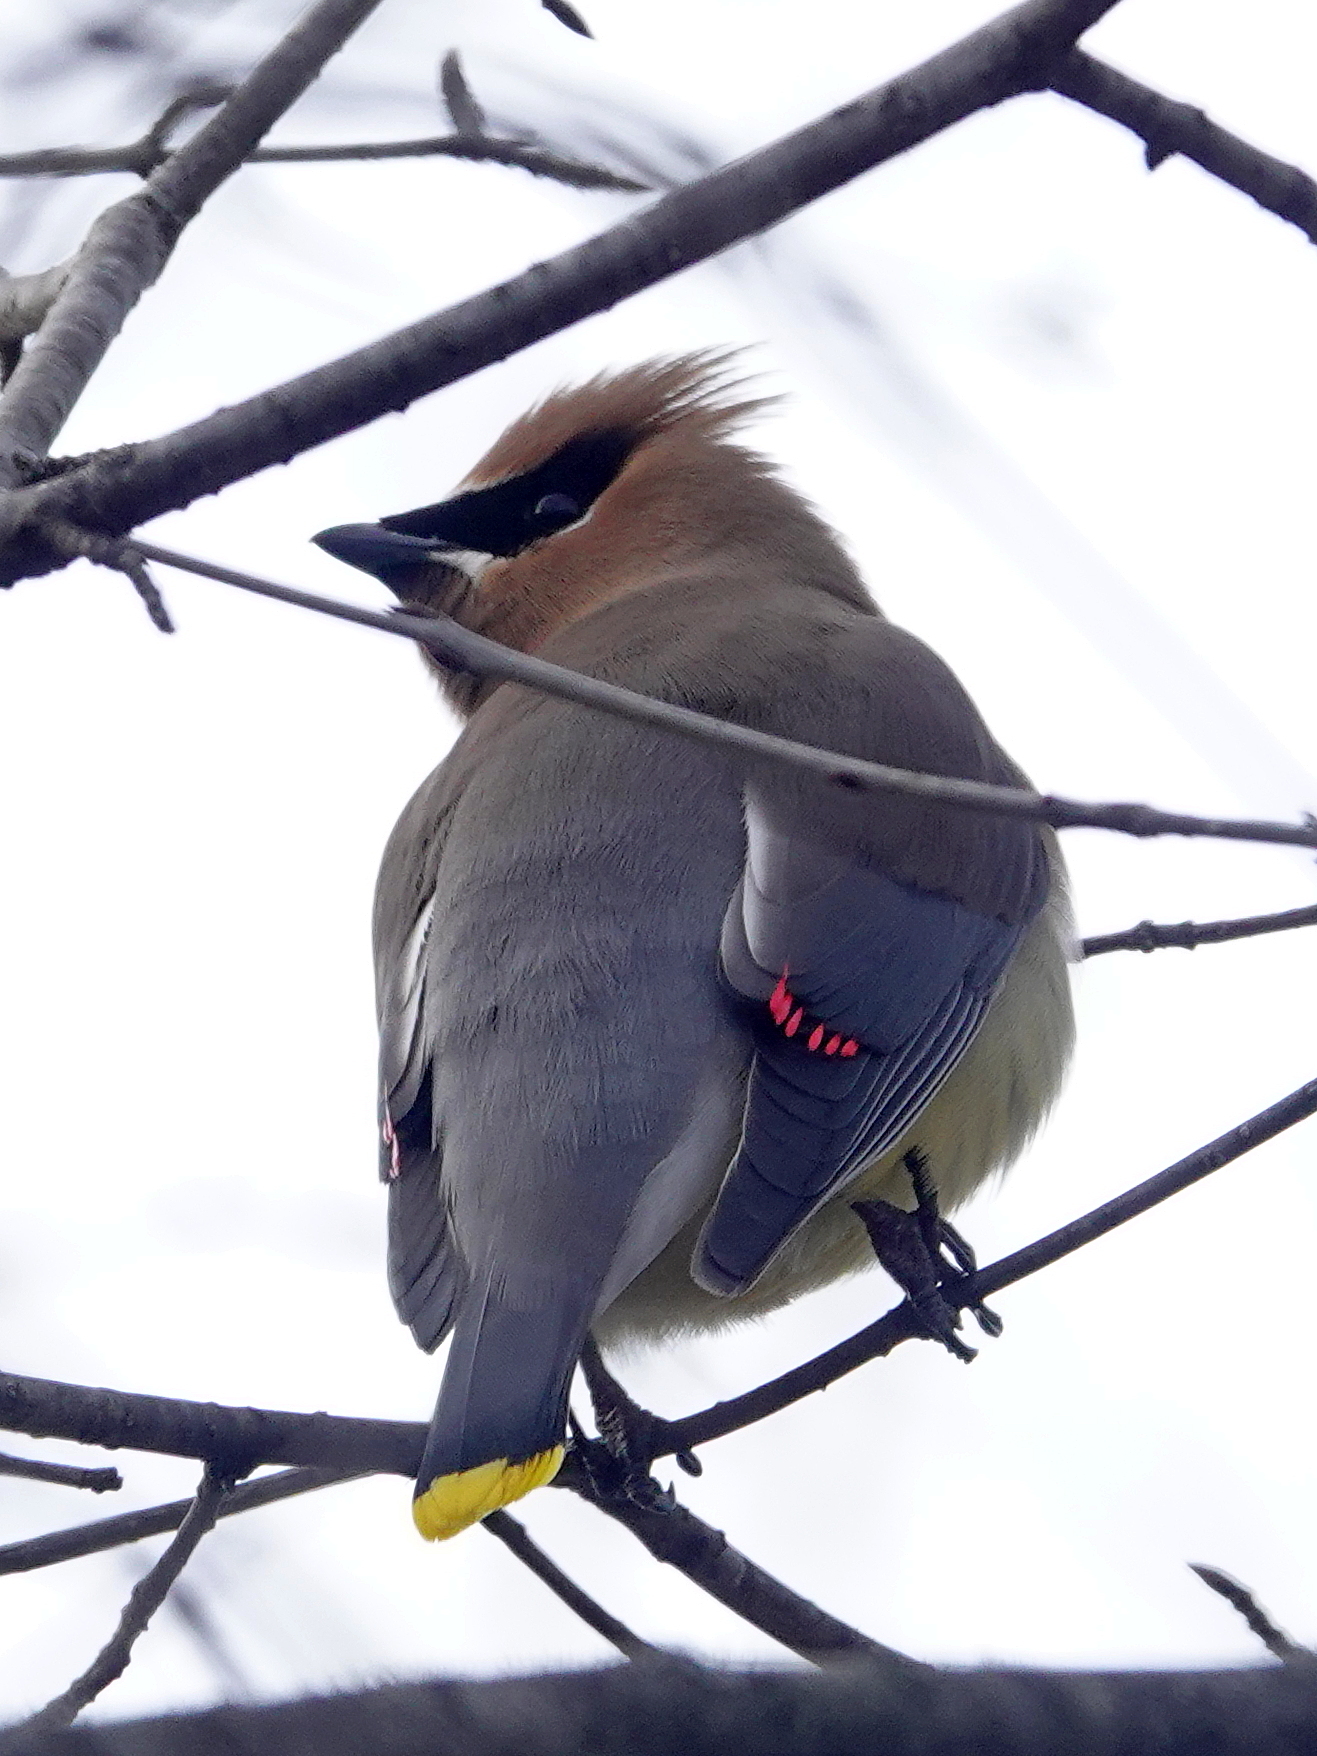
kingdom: Animalia
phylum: Chordata
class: Aves
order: Passeriformes
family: Bombycillidae
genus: Bombycilla
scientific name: Bombycilla cedrorum
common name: Cedar waxwing
